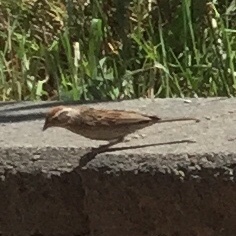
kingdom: Animalia
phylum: Chordata
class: Aves
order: Passeriformes
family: Passerellidae
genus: Spizella
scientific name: Spizella passerina
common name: Chipping sparrow
